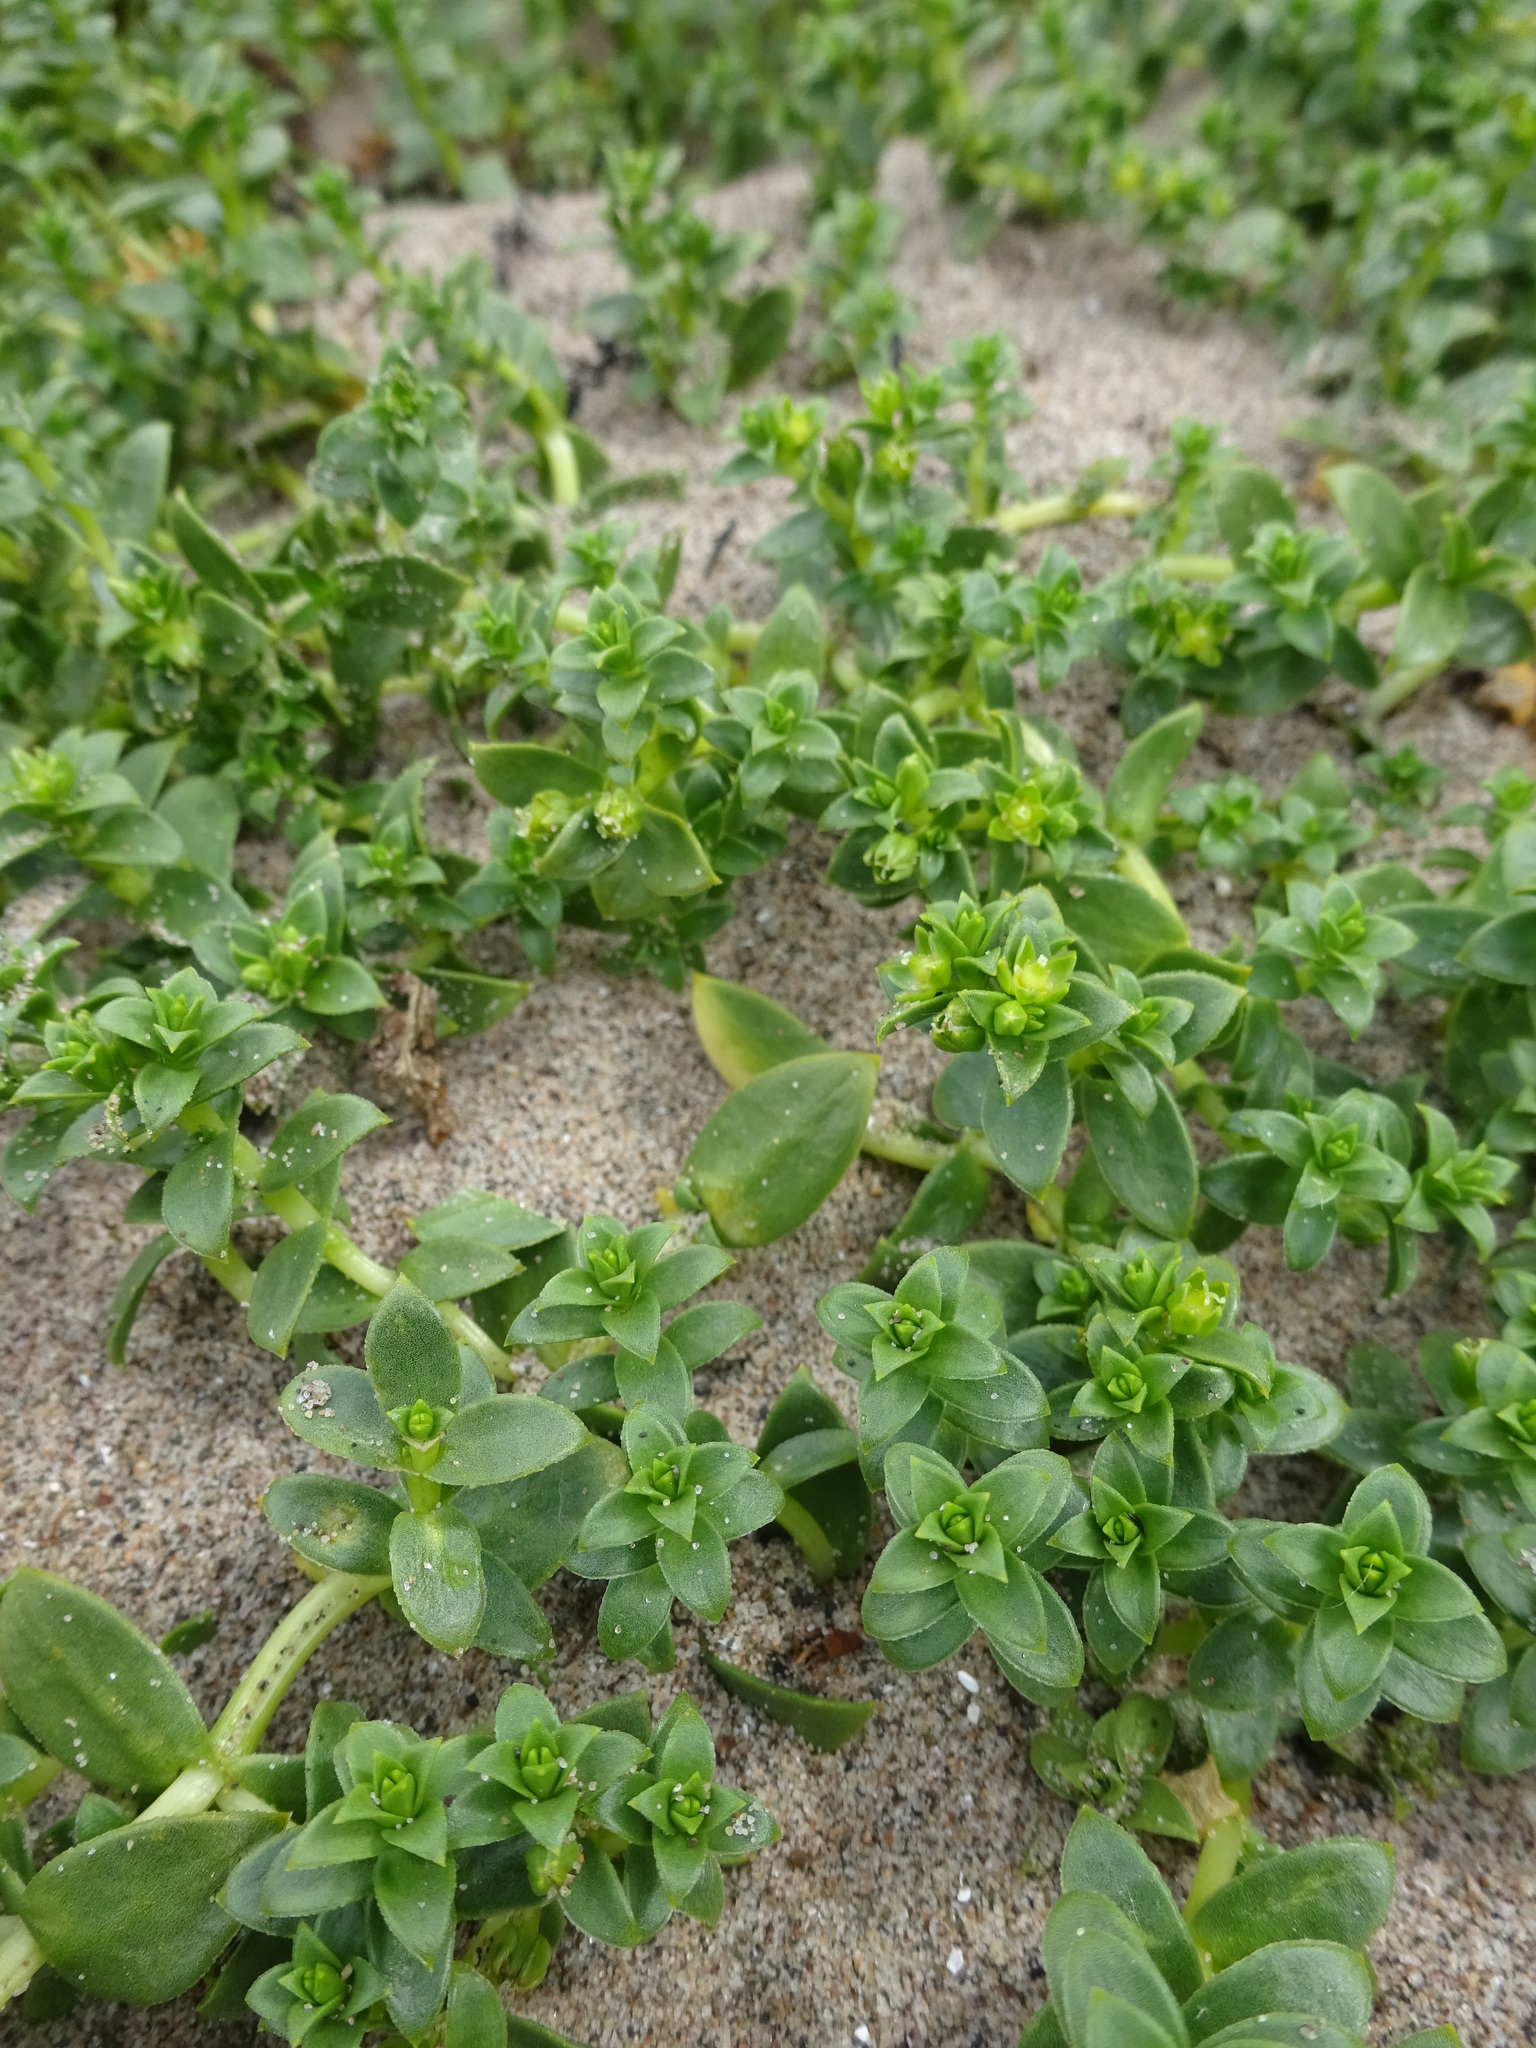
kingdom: Plantae
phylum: Tracheophyta
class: Magnoliopsida
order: Caryophyllales
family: Caryophyllaceae
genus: Honckenya
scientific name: Honckenya peploides
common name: Sea sandwort
